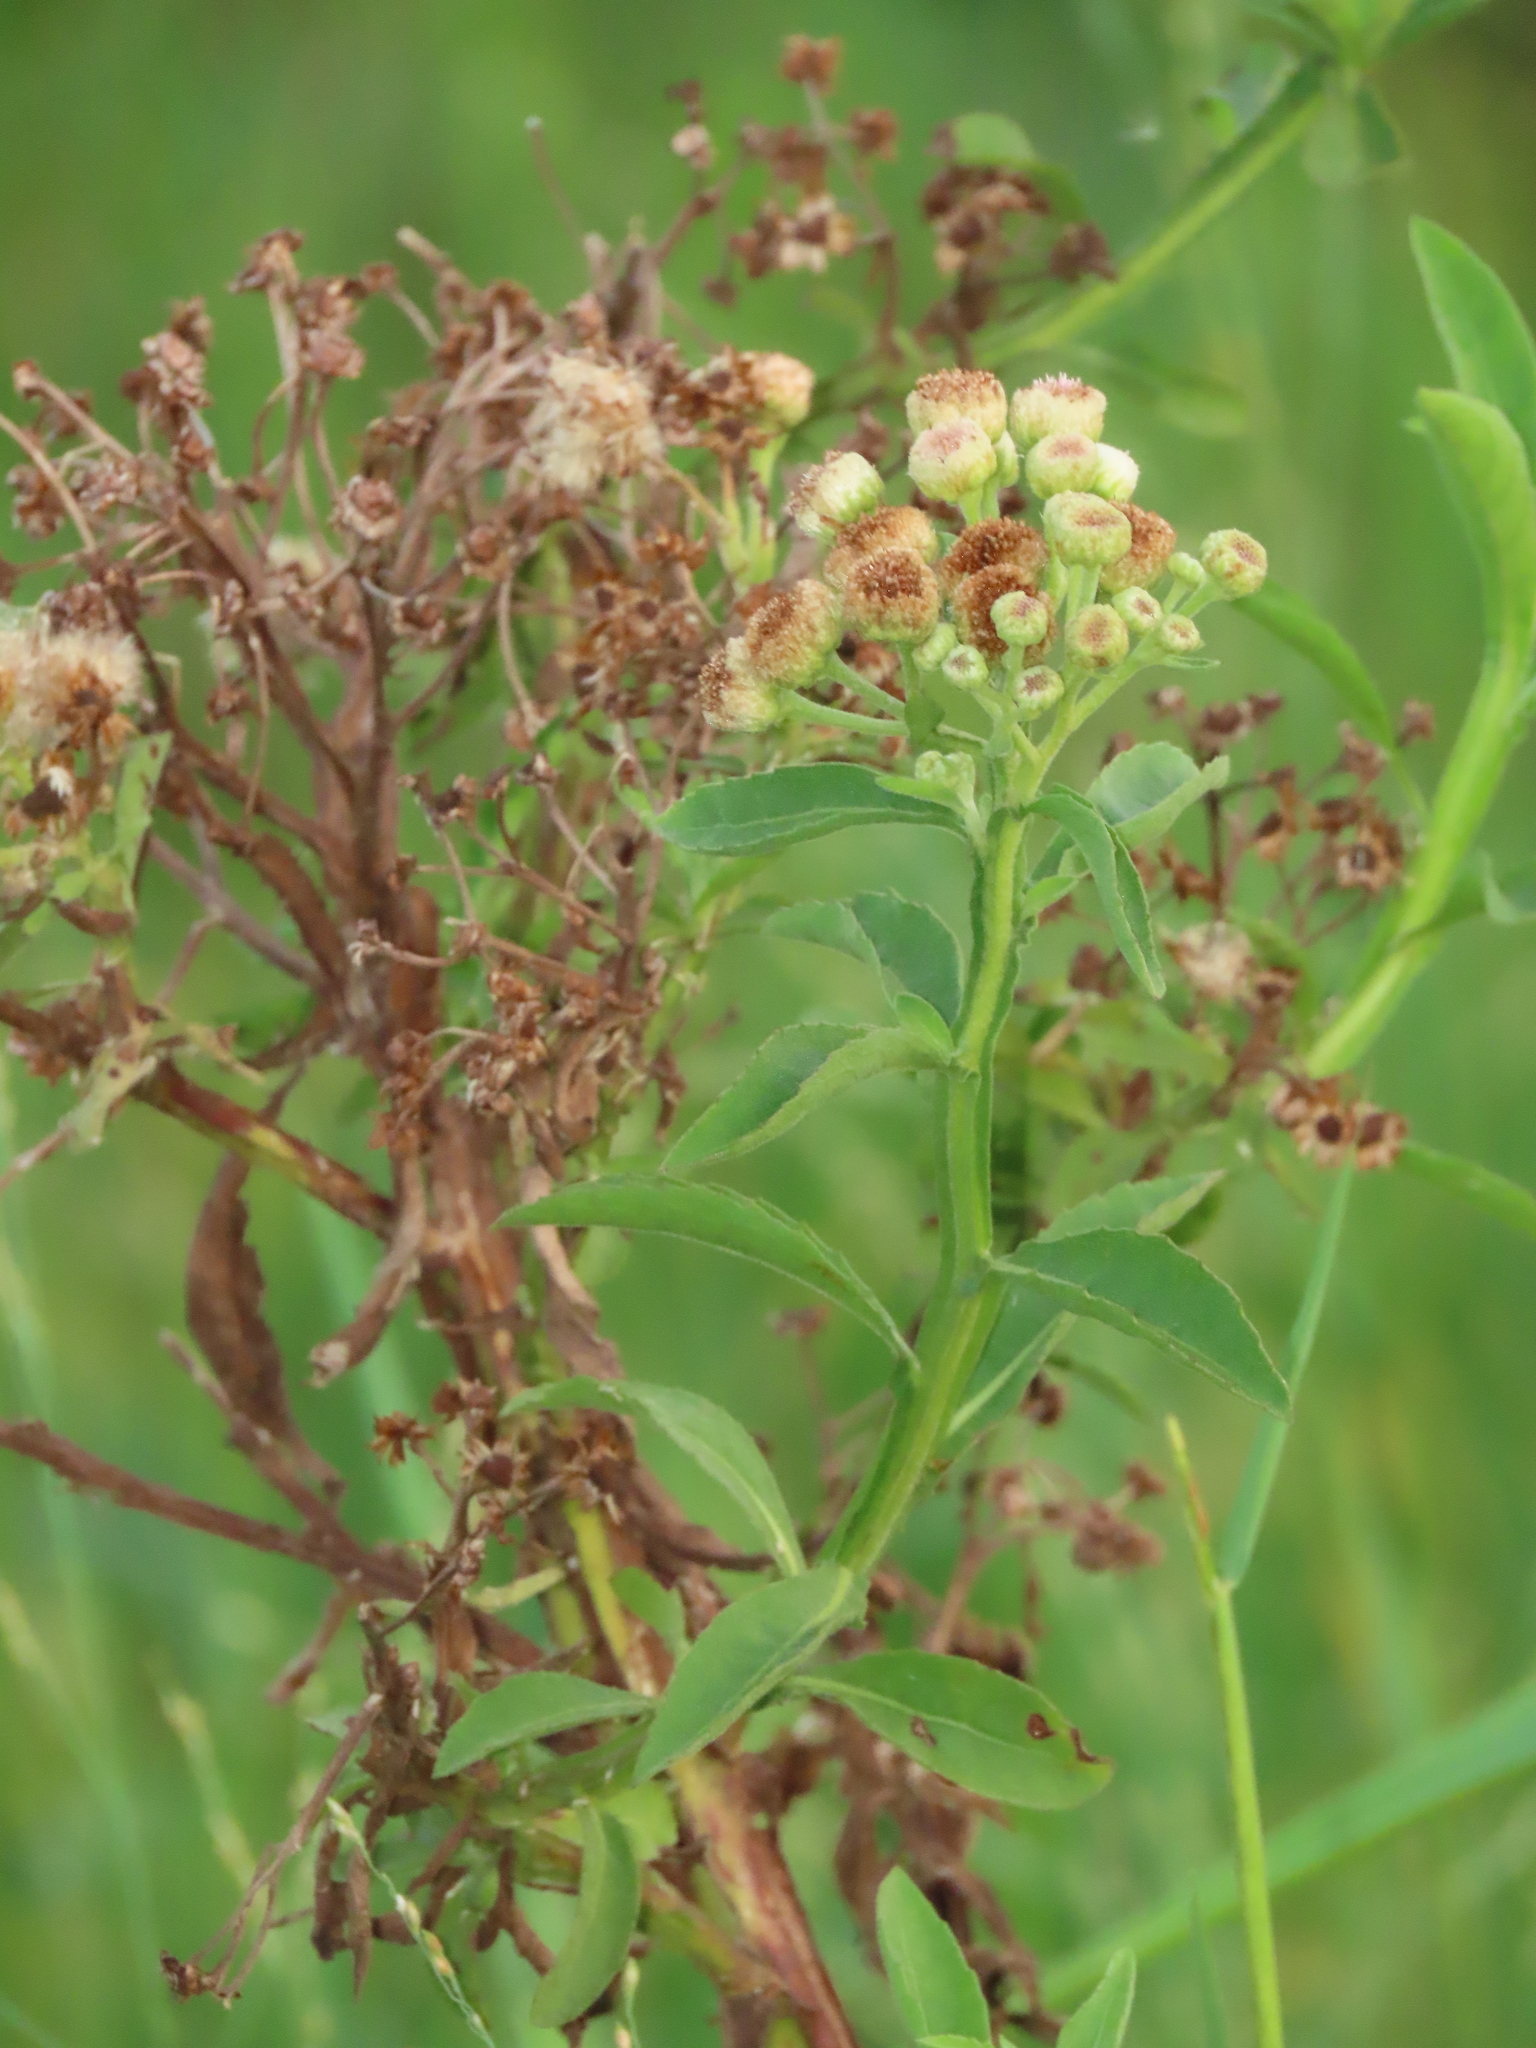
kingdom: Plantae
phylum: Tracheophyta
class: Magnoliopsida
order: Asterales
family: Asteraceae
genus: Pluchea
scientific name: Pluchea sagittalis
